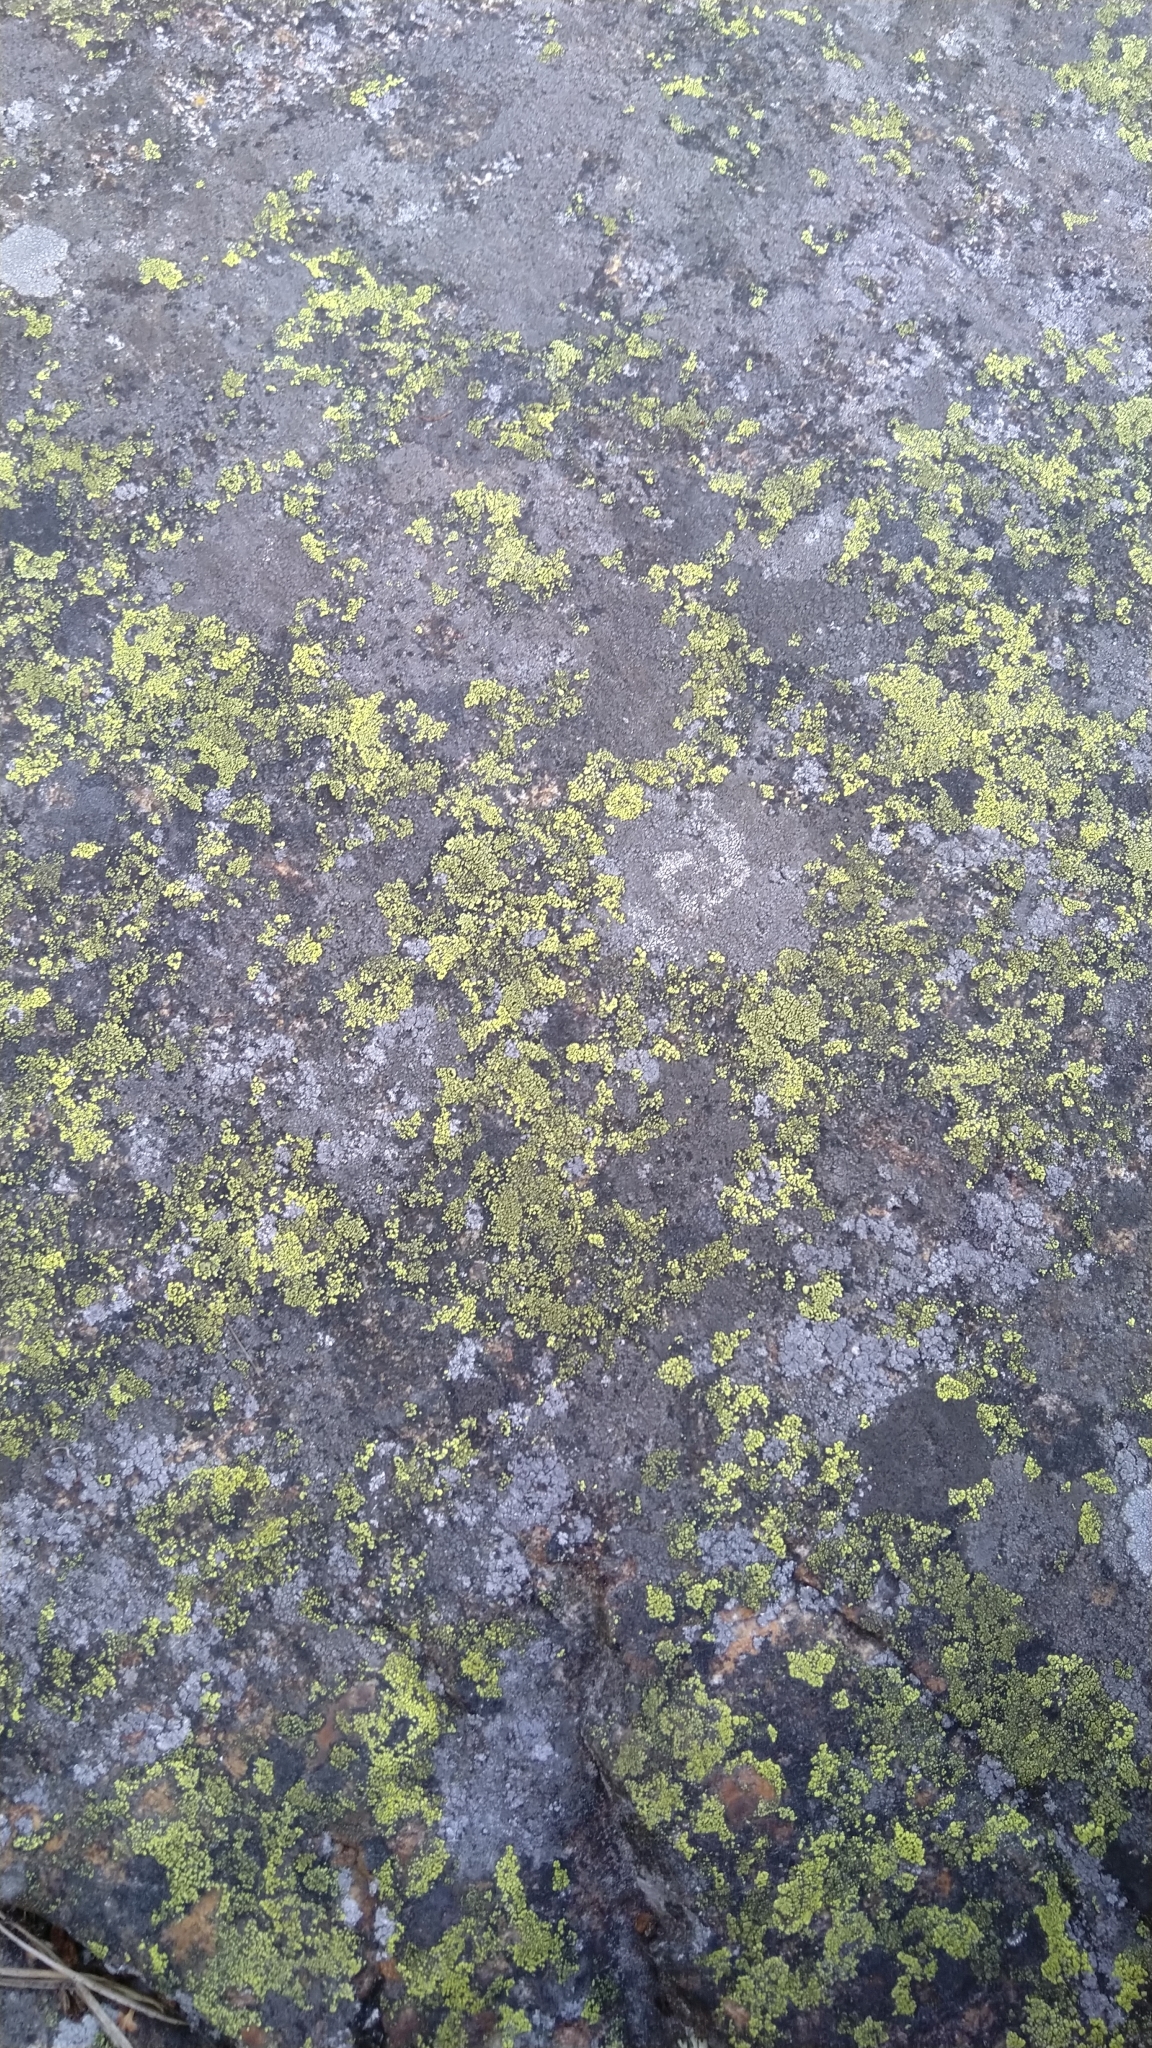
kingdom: Fungi
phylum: Ascomycota
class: Lecanoromycetes
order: Rhizocarpales
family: Rhizocarpaceae
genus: Rhizocarpon
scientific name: Rhizocarpon lecanorinum
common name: Crescent map lichen
